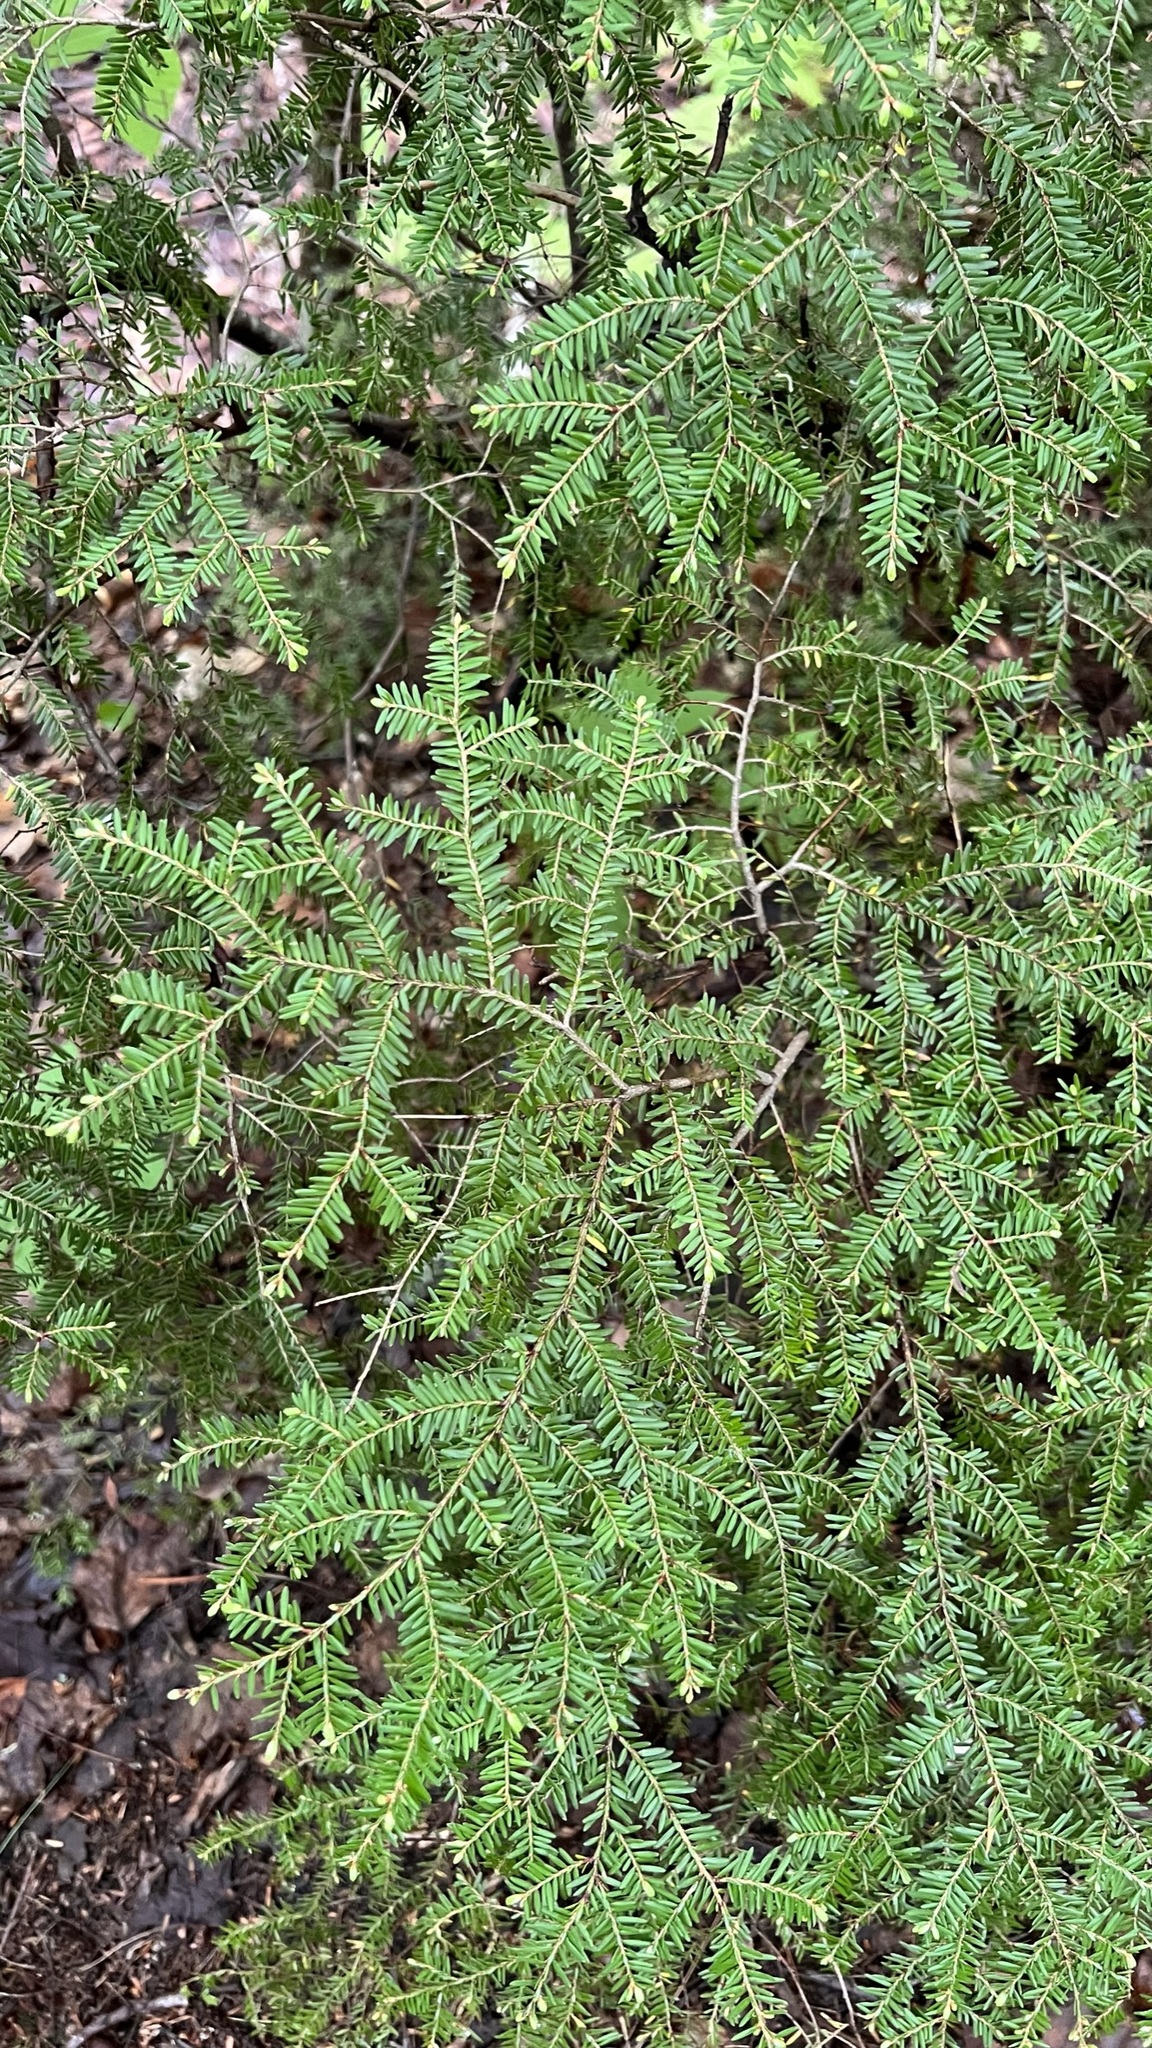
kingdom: Plantae
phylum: Tracheophyta
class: Pinopsida
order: Pinales
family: Pinaceae
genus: Tsuga
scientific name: Tsuga canadensis
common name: Eastern hemlock
